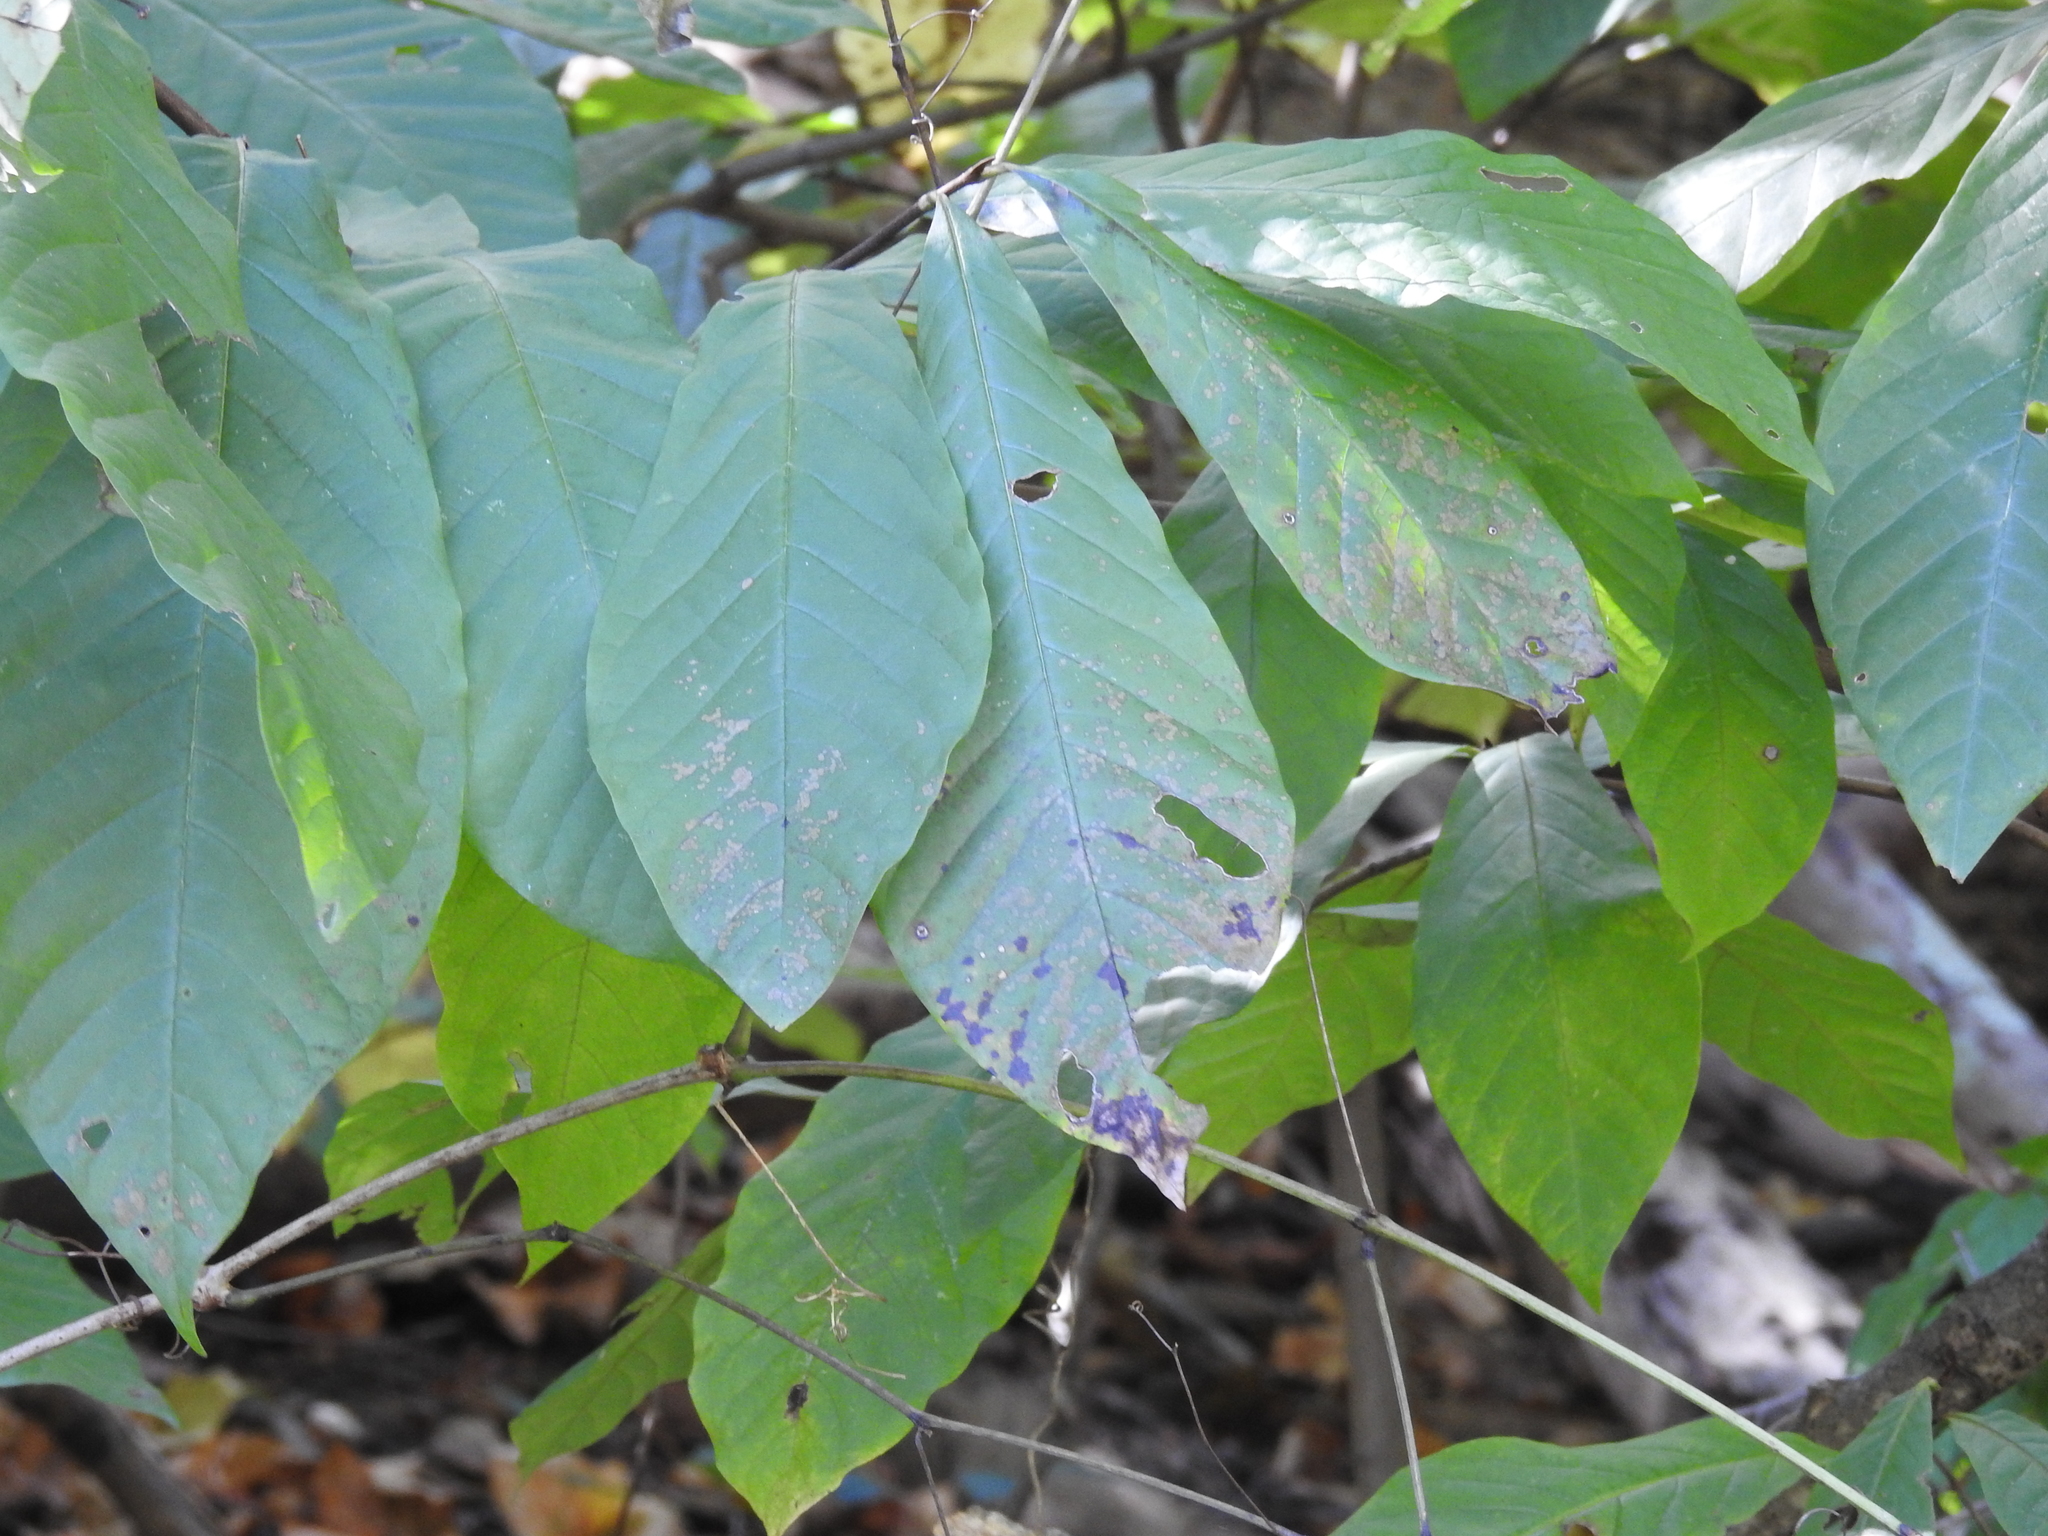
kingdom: Plantae
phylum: Tracheophyta
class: Magnoliopsida
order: Magnoliales
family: Annonaceae
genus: Asimina
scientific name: Asimina triloba
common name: Dog-banana
